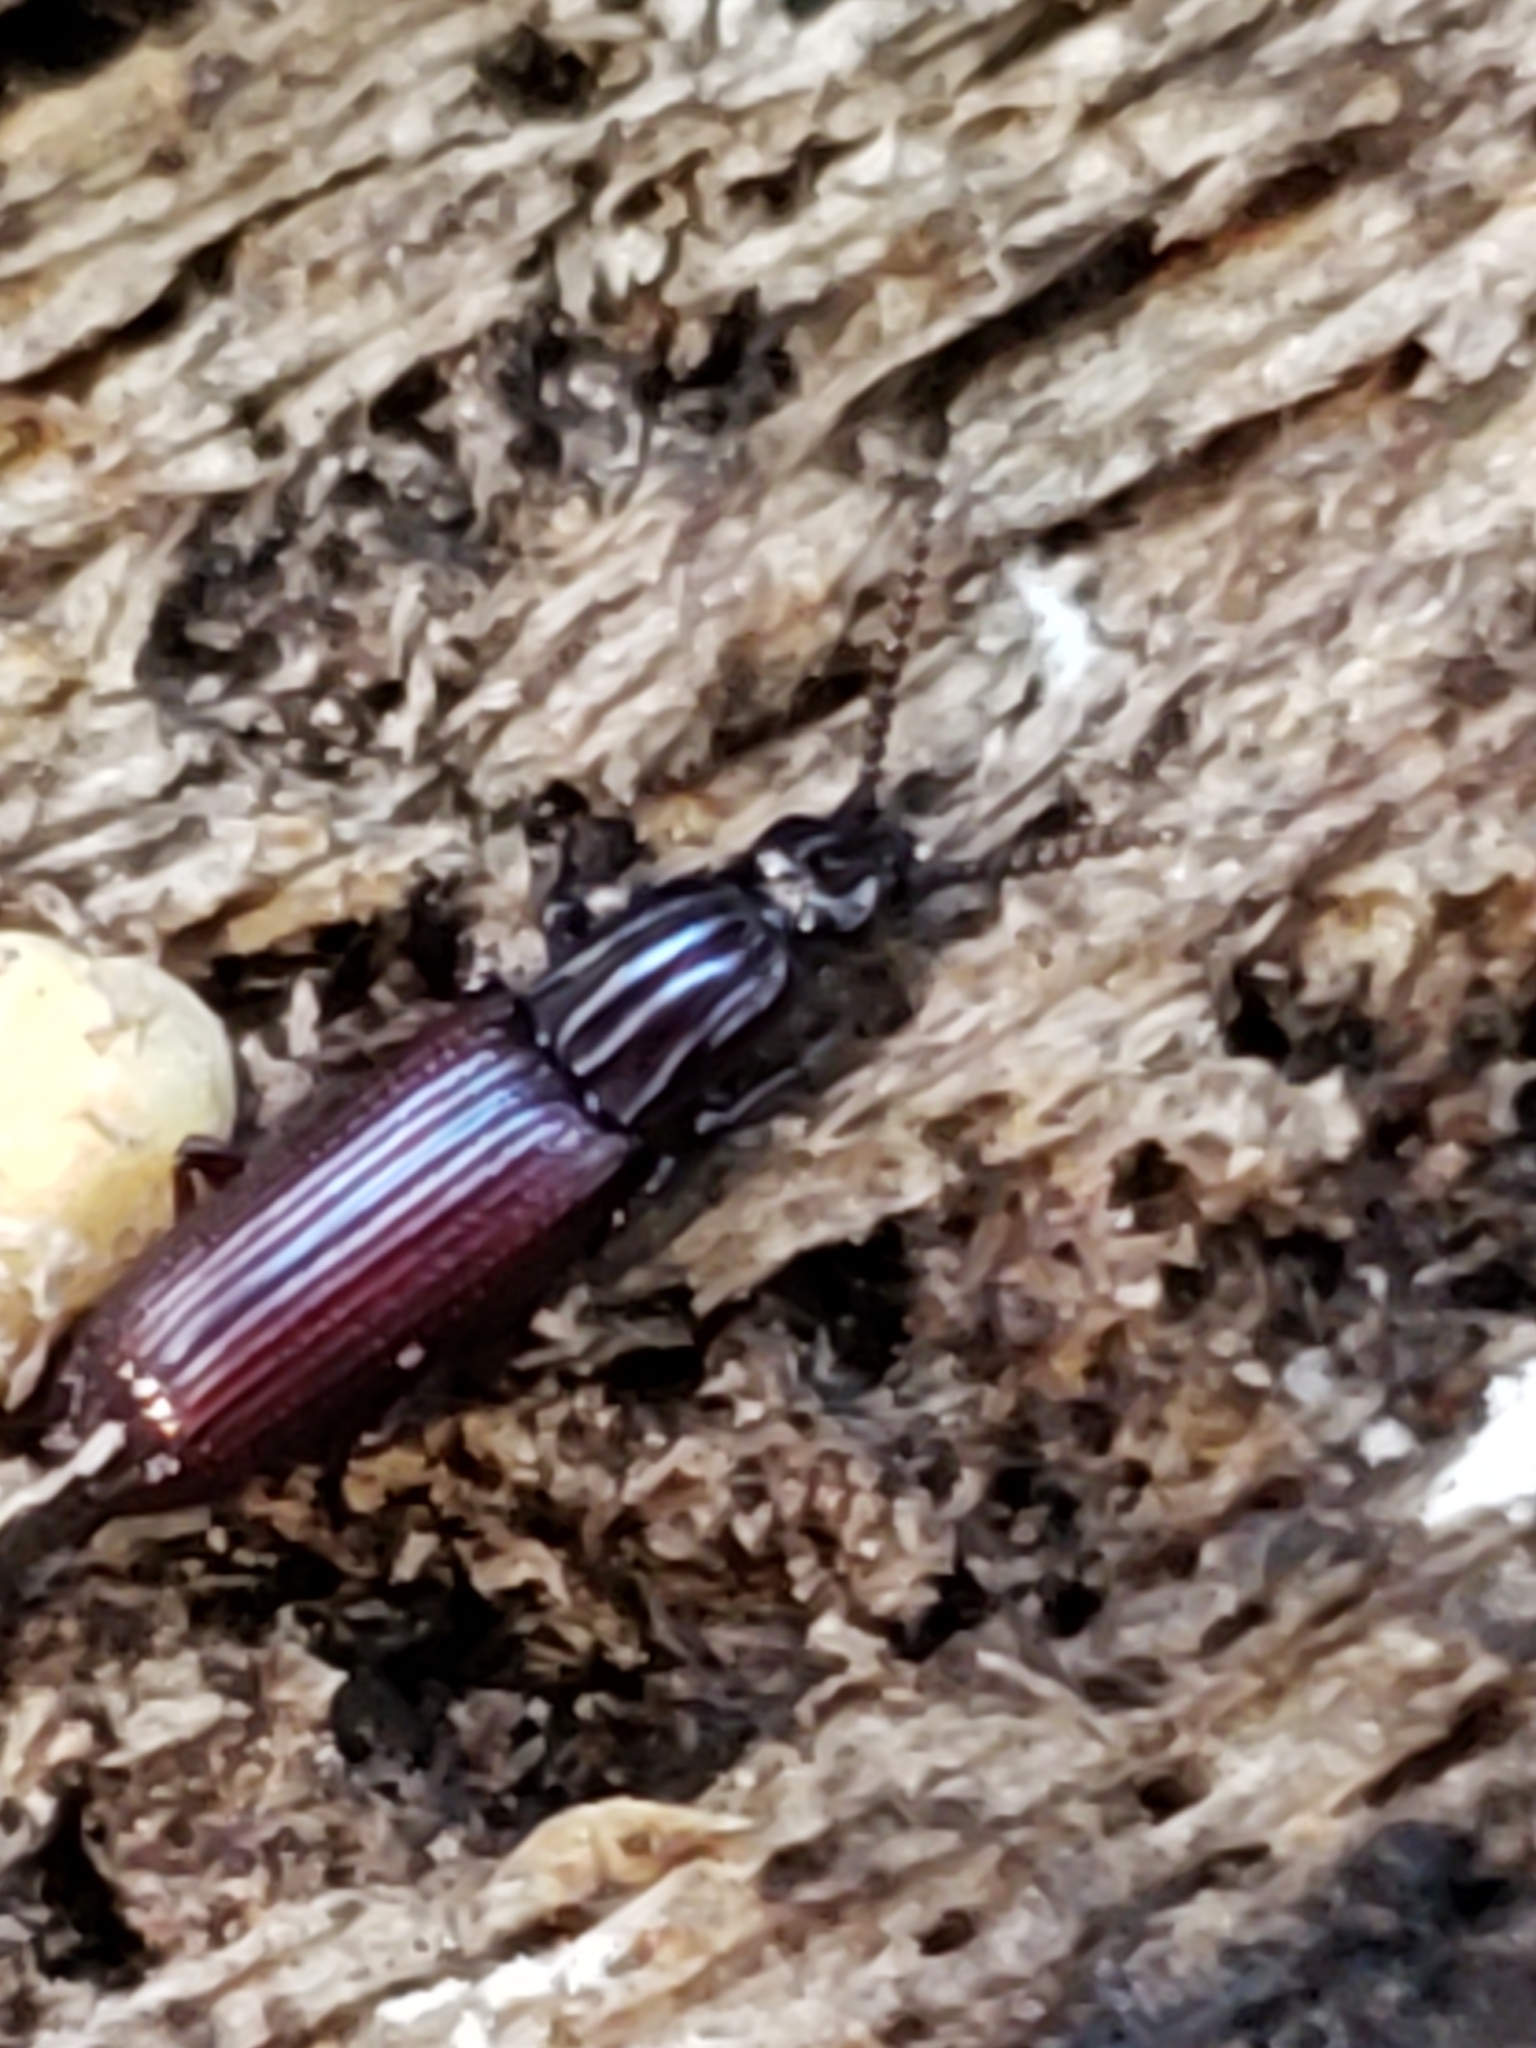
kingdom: Animalia
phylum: Arthropoda
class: Insecta
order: Coleoptera
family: Carabidae
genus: Omoglymmius
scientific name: Omoglymmius americanus
